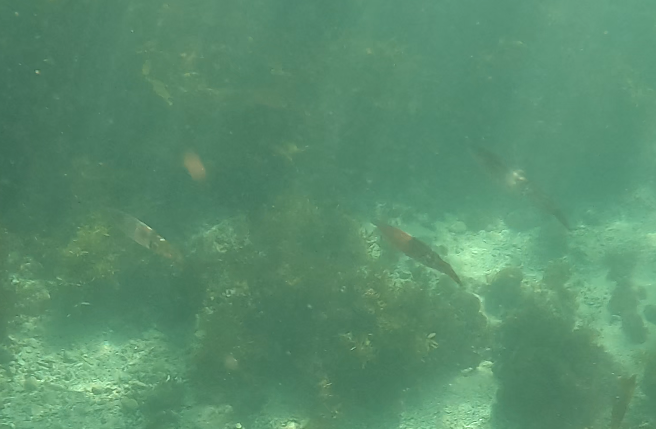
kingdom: Animalia
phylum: Mollusca
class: Cephalopoda
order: Myopsida
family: Loliginidae
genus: Sepioteuthis
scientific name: Sepioteuthis australis
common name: Southern reef squid
